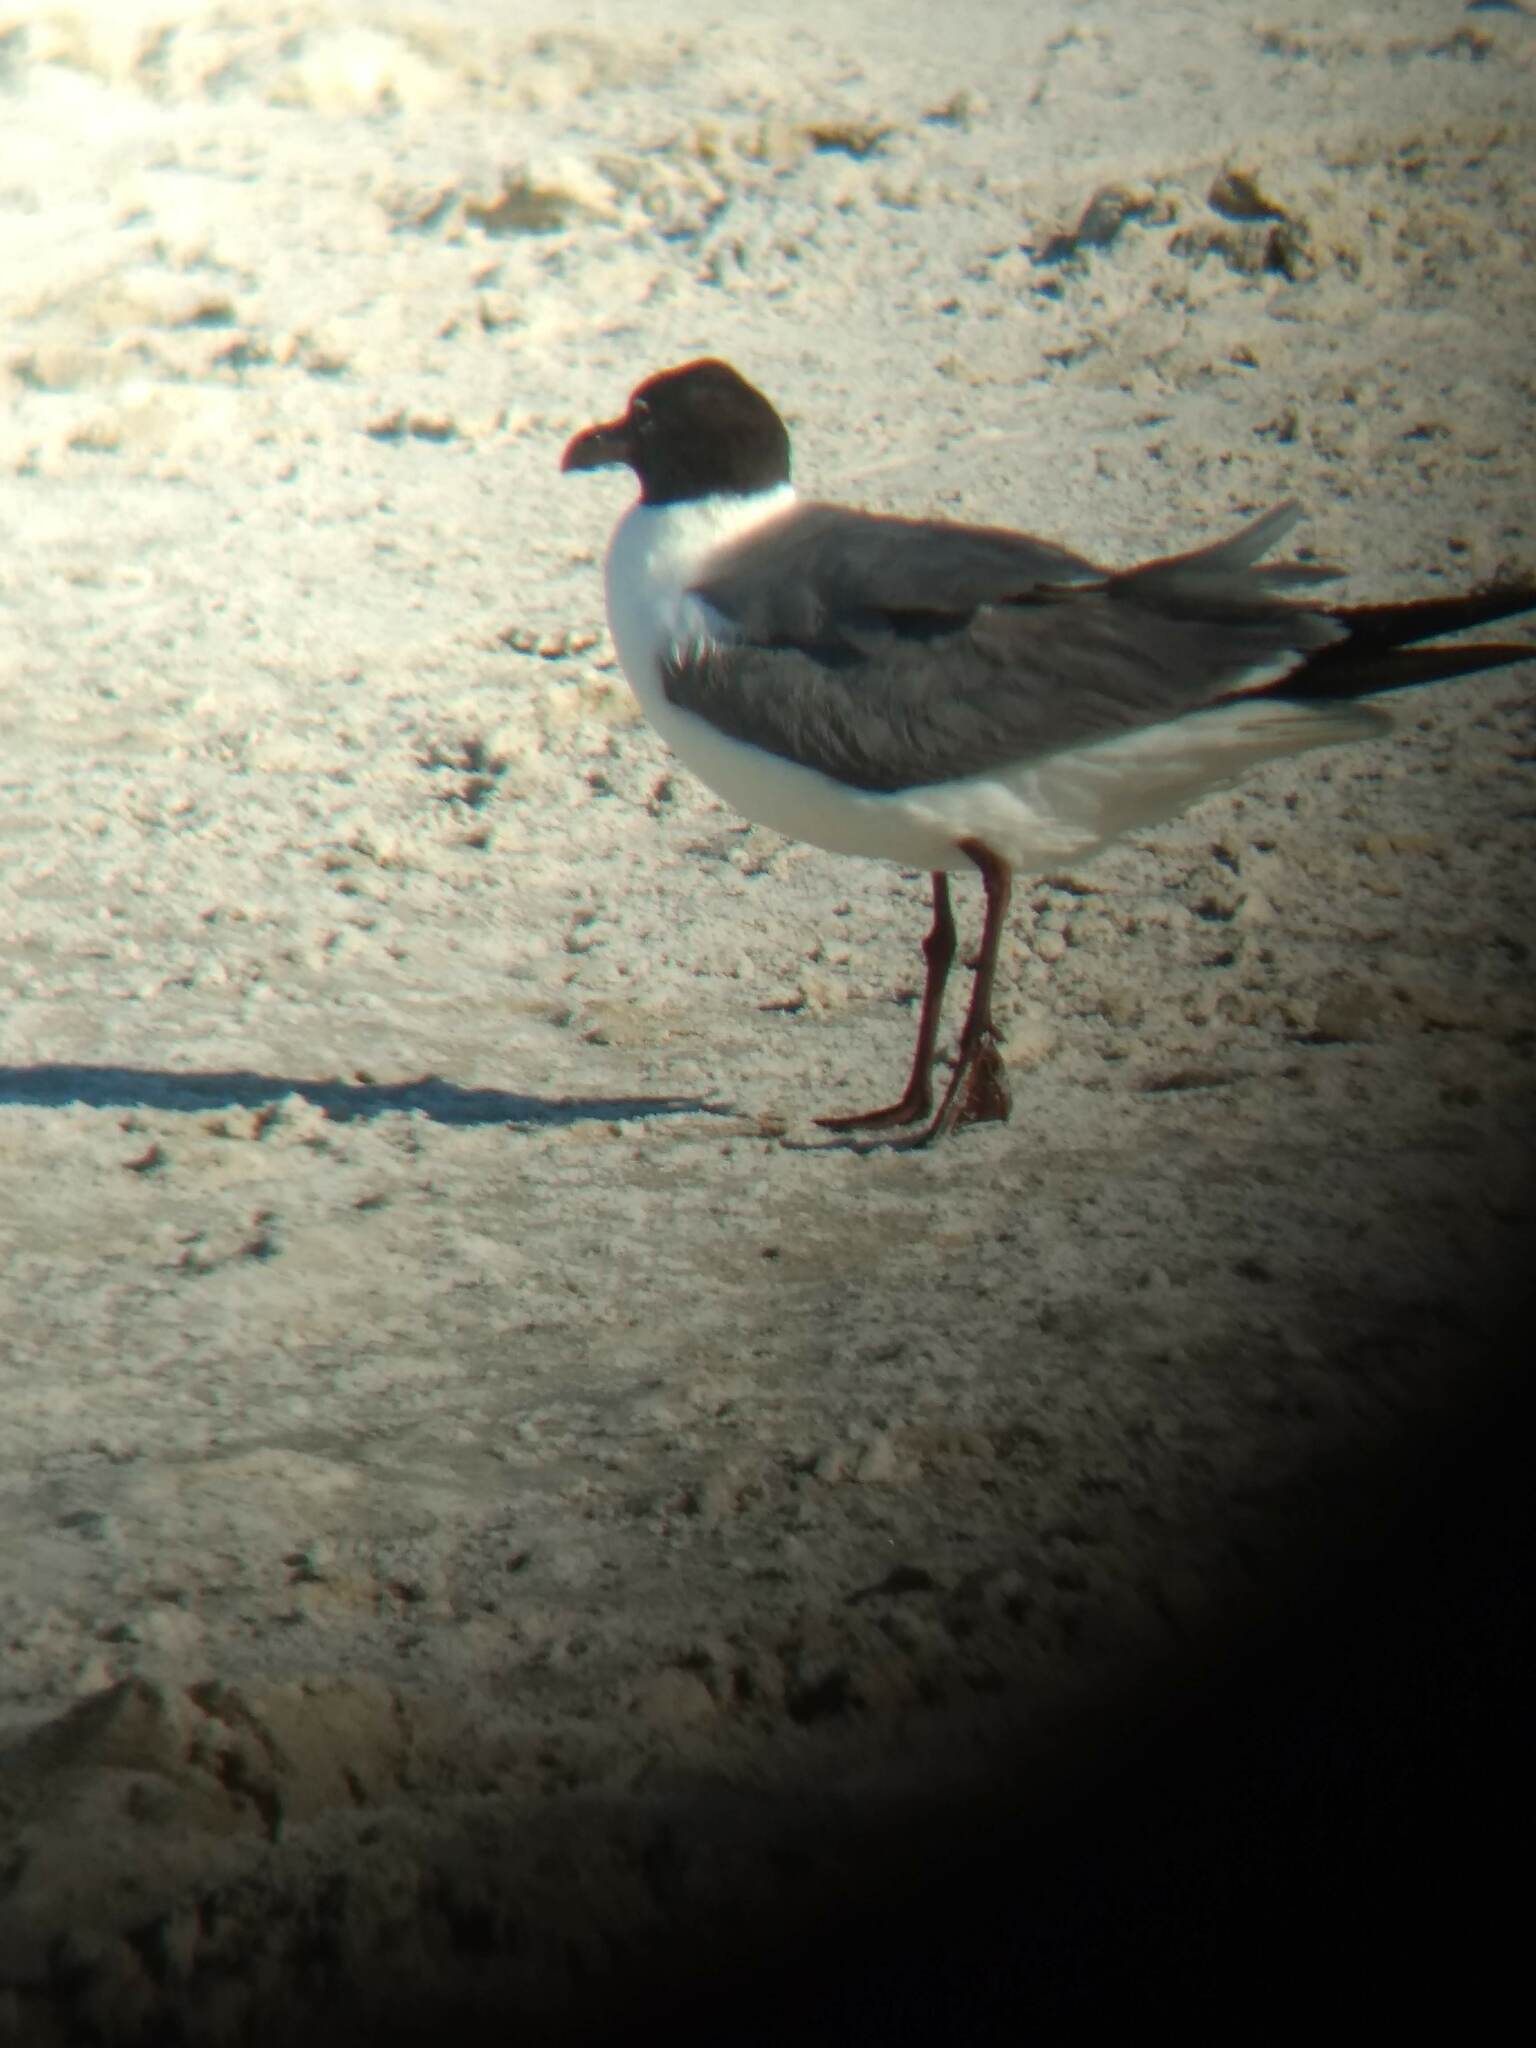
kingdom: Animalia
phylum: Chordata
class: Aves
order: Charadriiformes
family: Laridae
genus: Leucophaeus
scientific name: Leucophaeus atricilla
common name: Laughing gull
